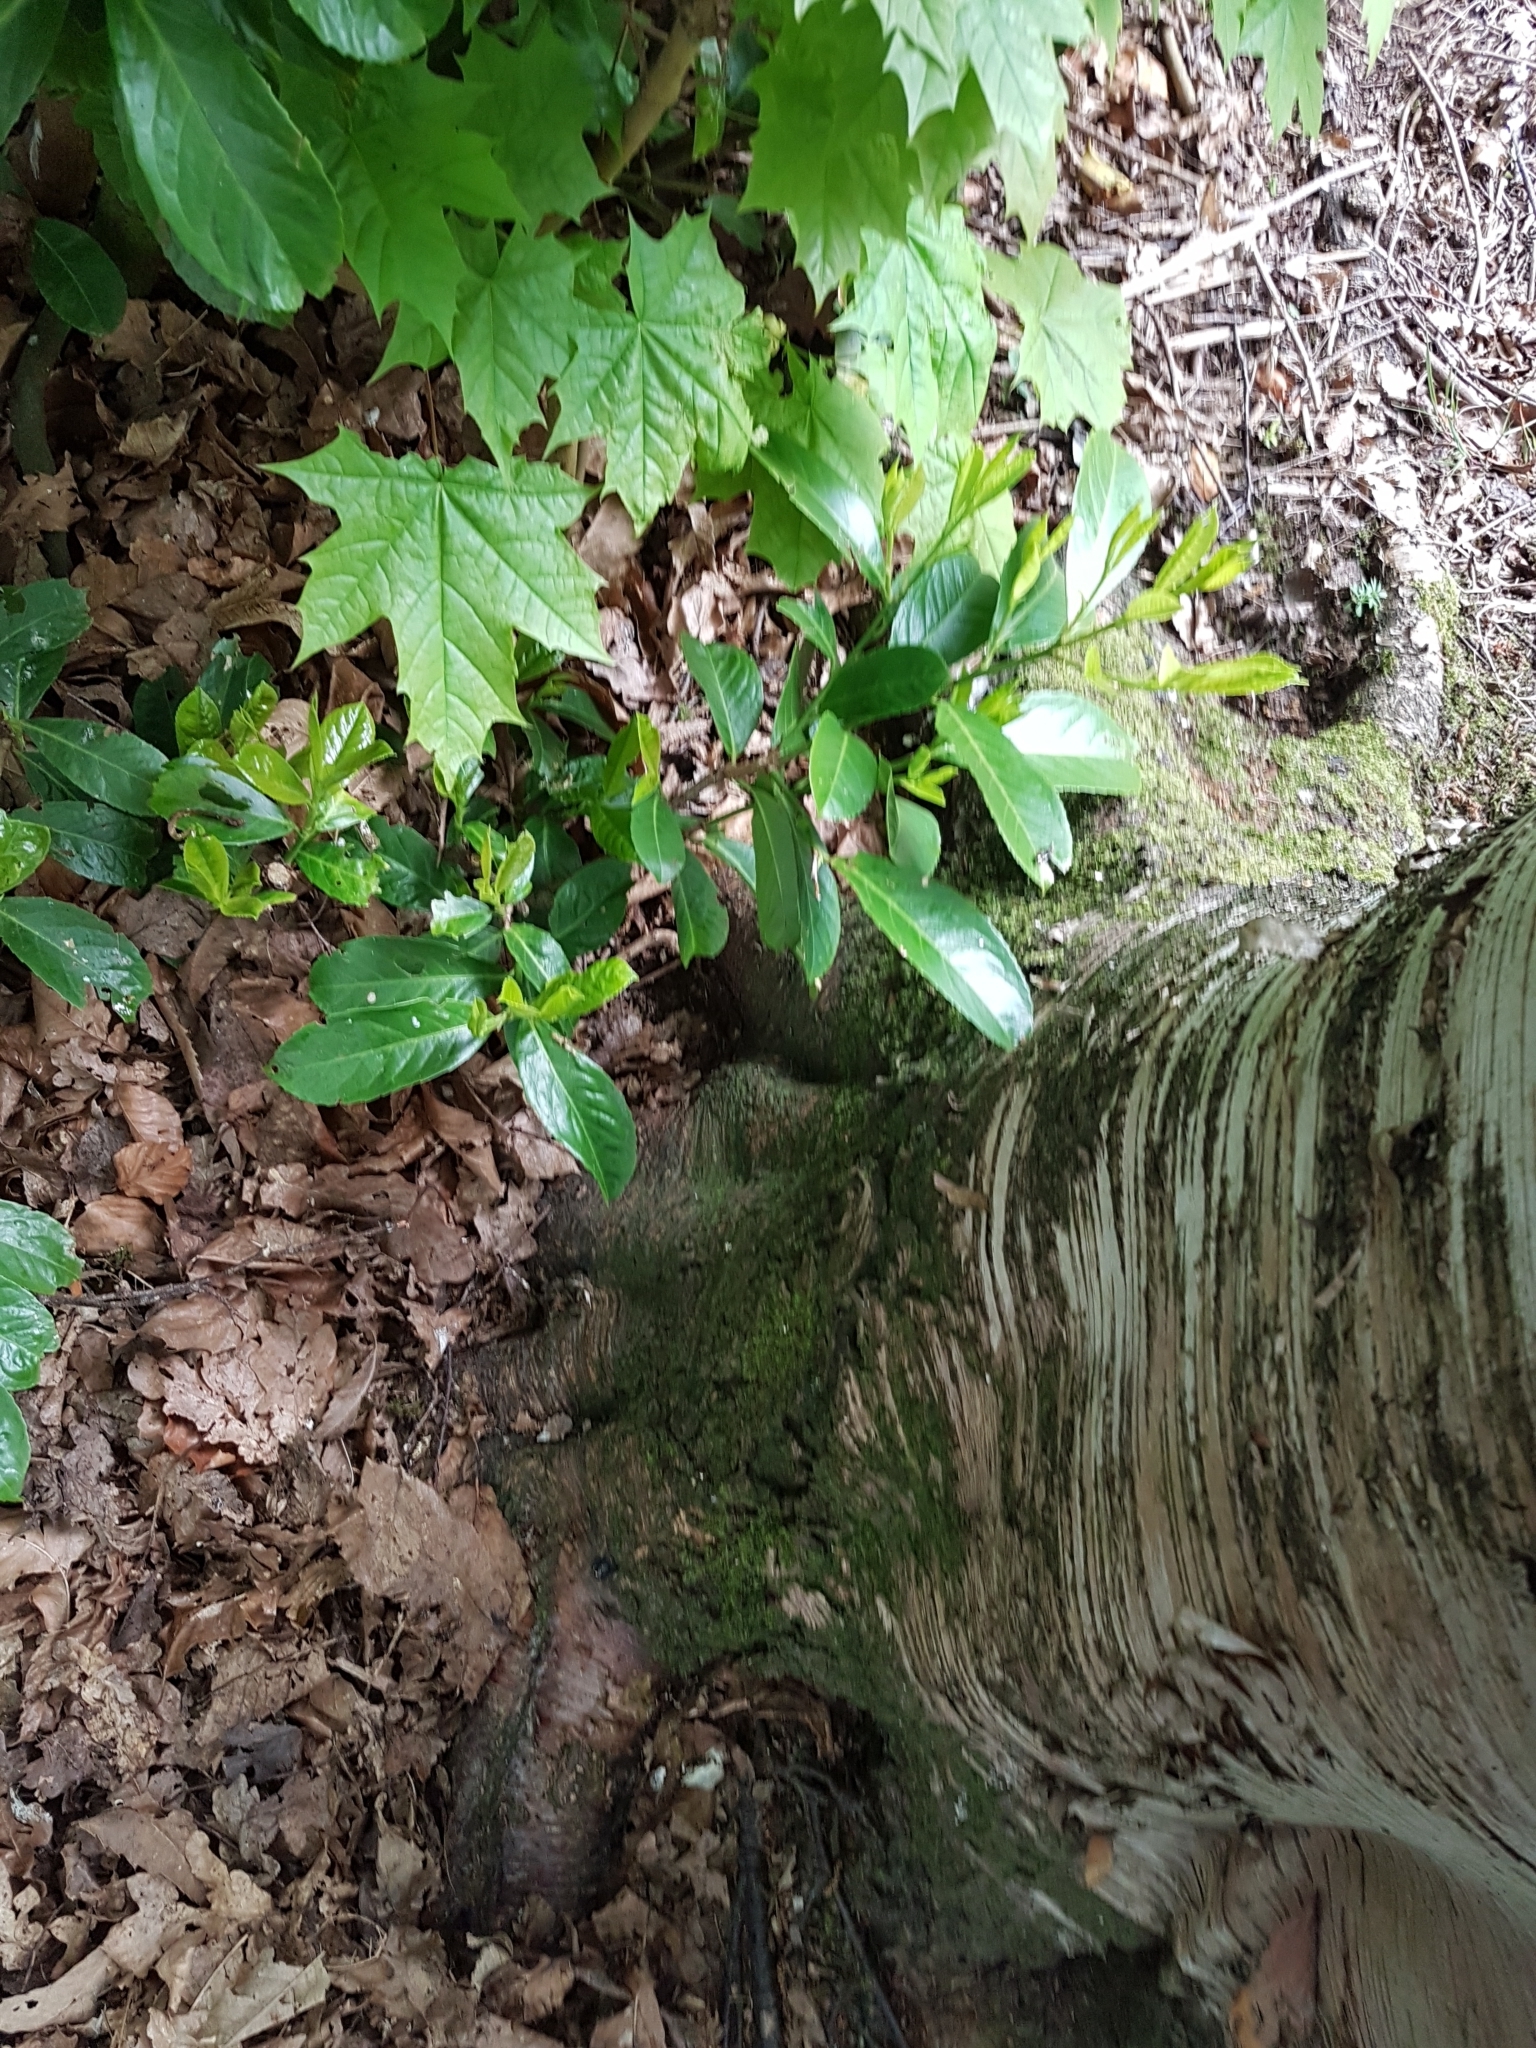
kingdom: Plantae
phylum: Tracheophyta
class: Magnoliopsida
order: Rosales
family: Rosaceae
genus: Prunus
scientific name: Prunus laurocerasus
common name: Cherry laurel
